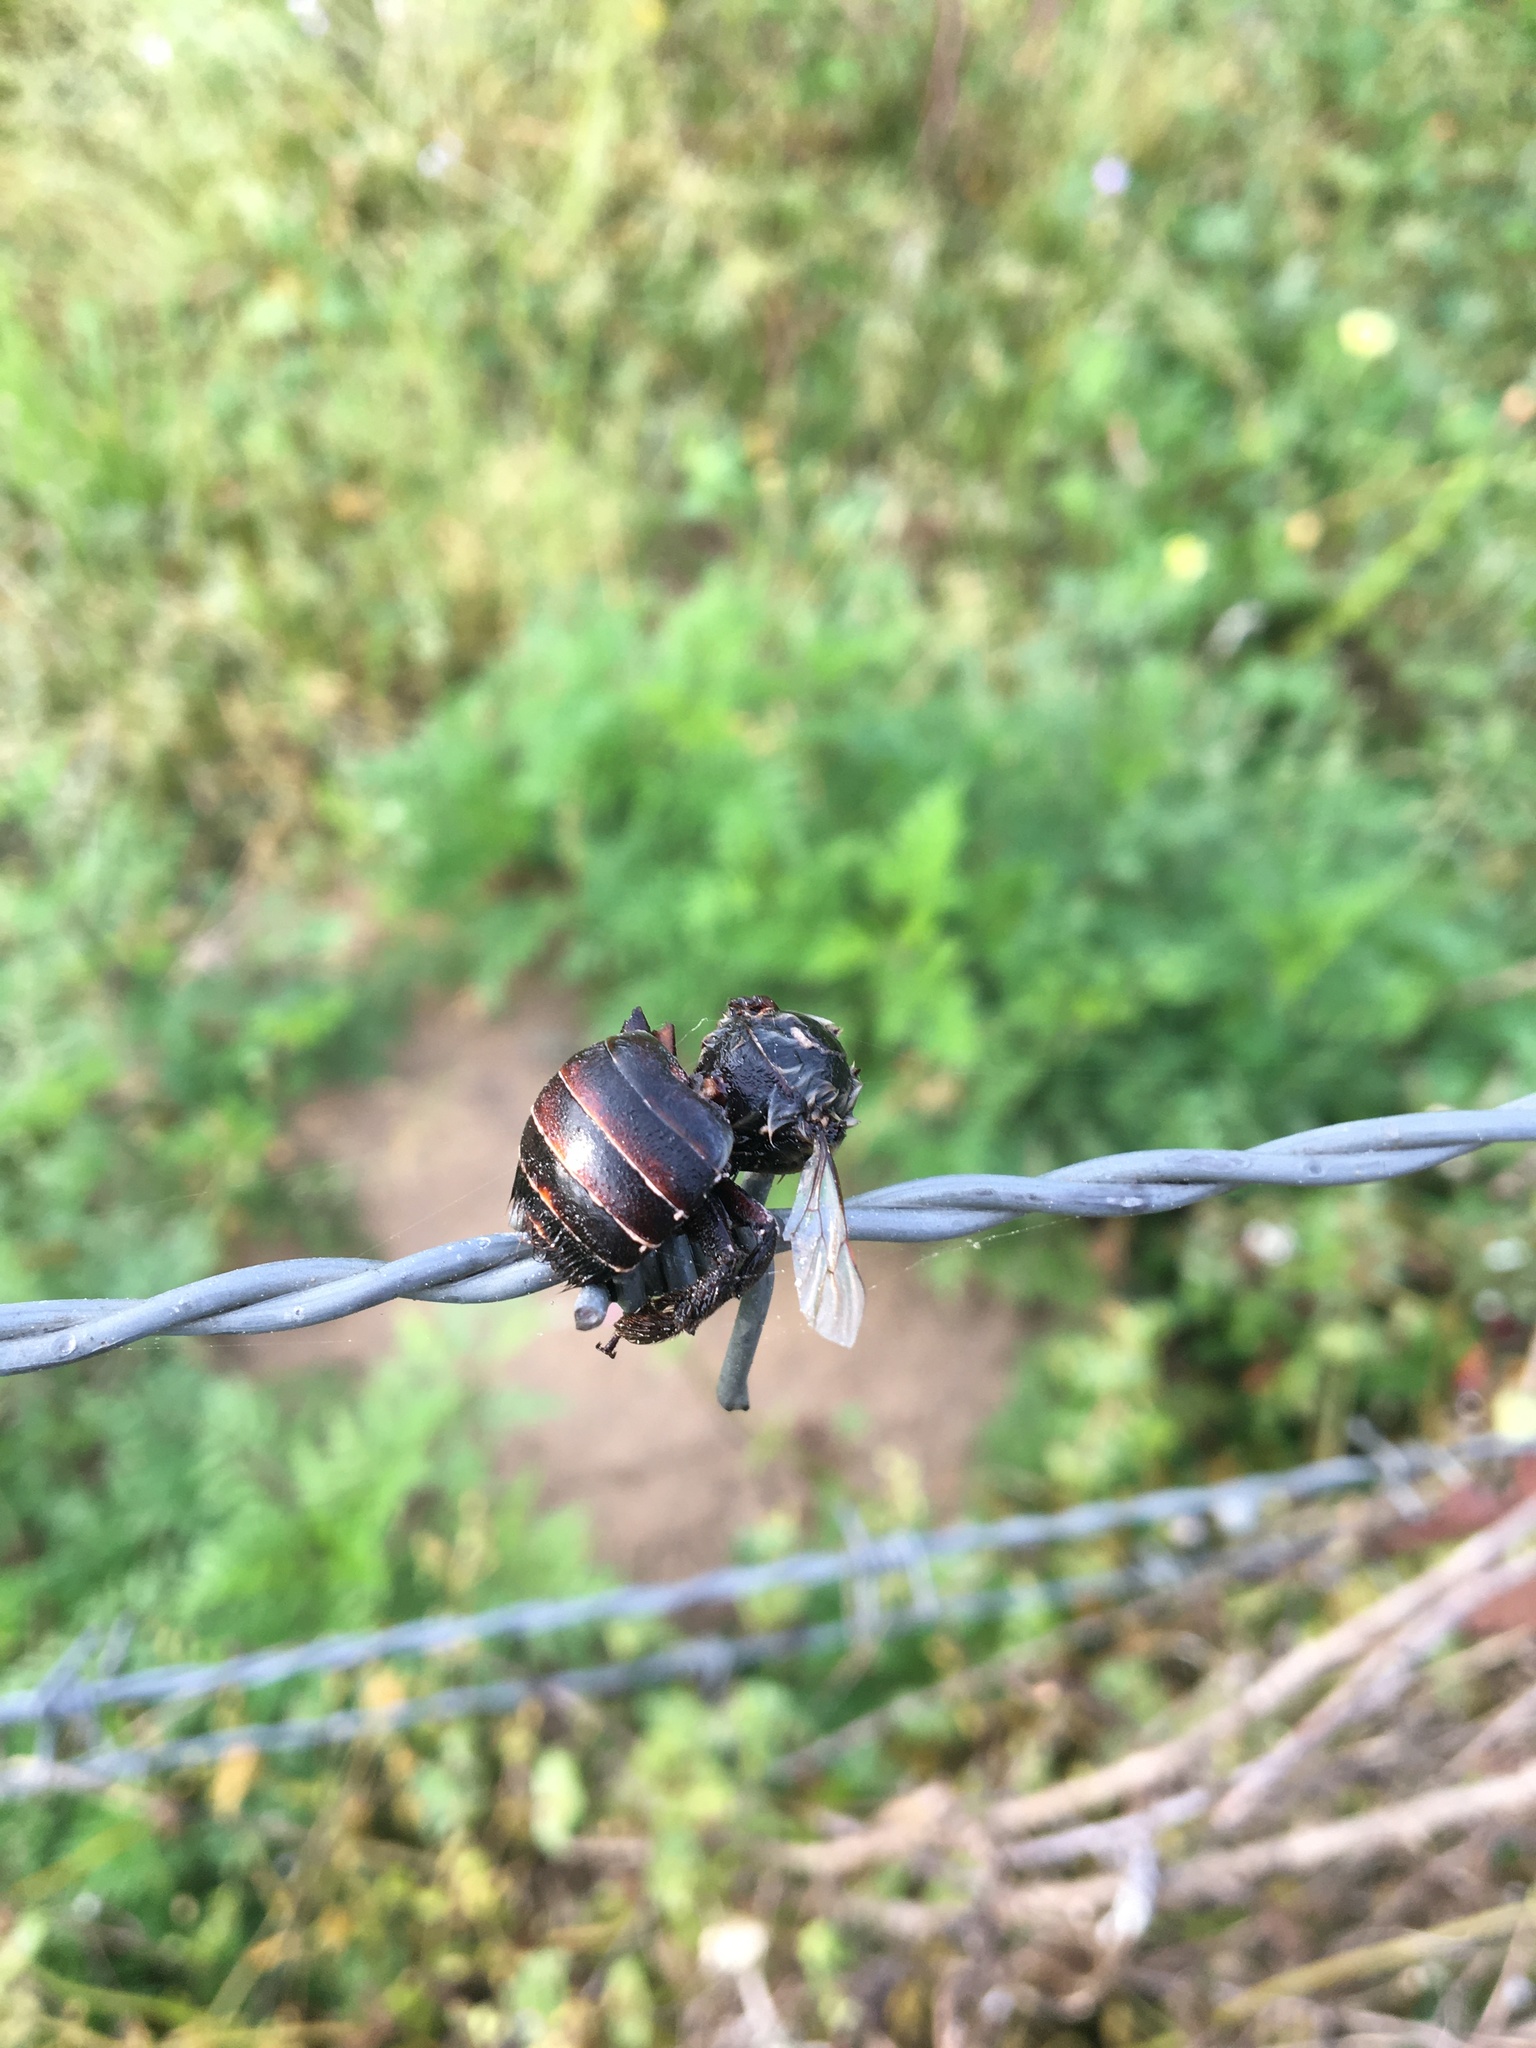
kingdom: Animalia
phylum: Arthropoda
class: Insecta
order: Hymenoptera
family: Apidae
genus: Xylocopa
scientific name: Xylocopa virginica
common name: Carpenter bee
